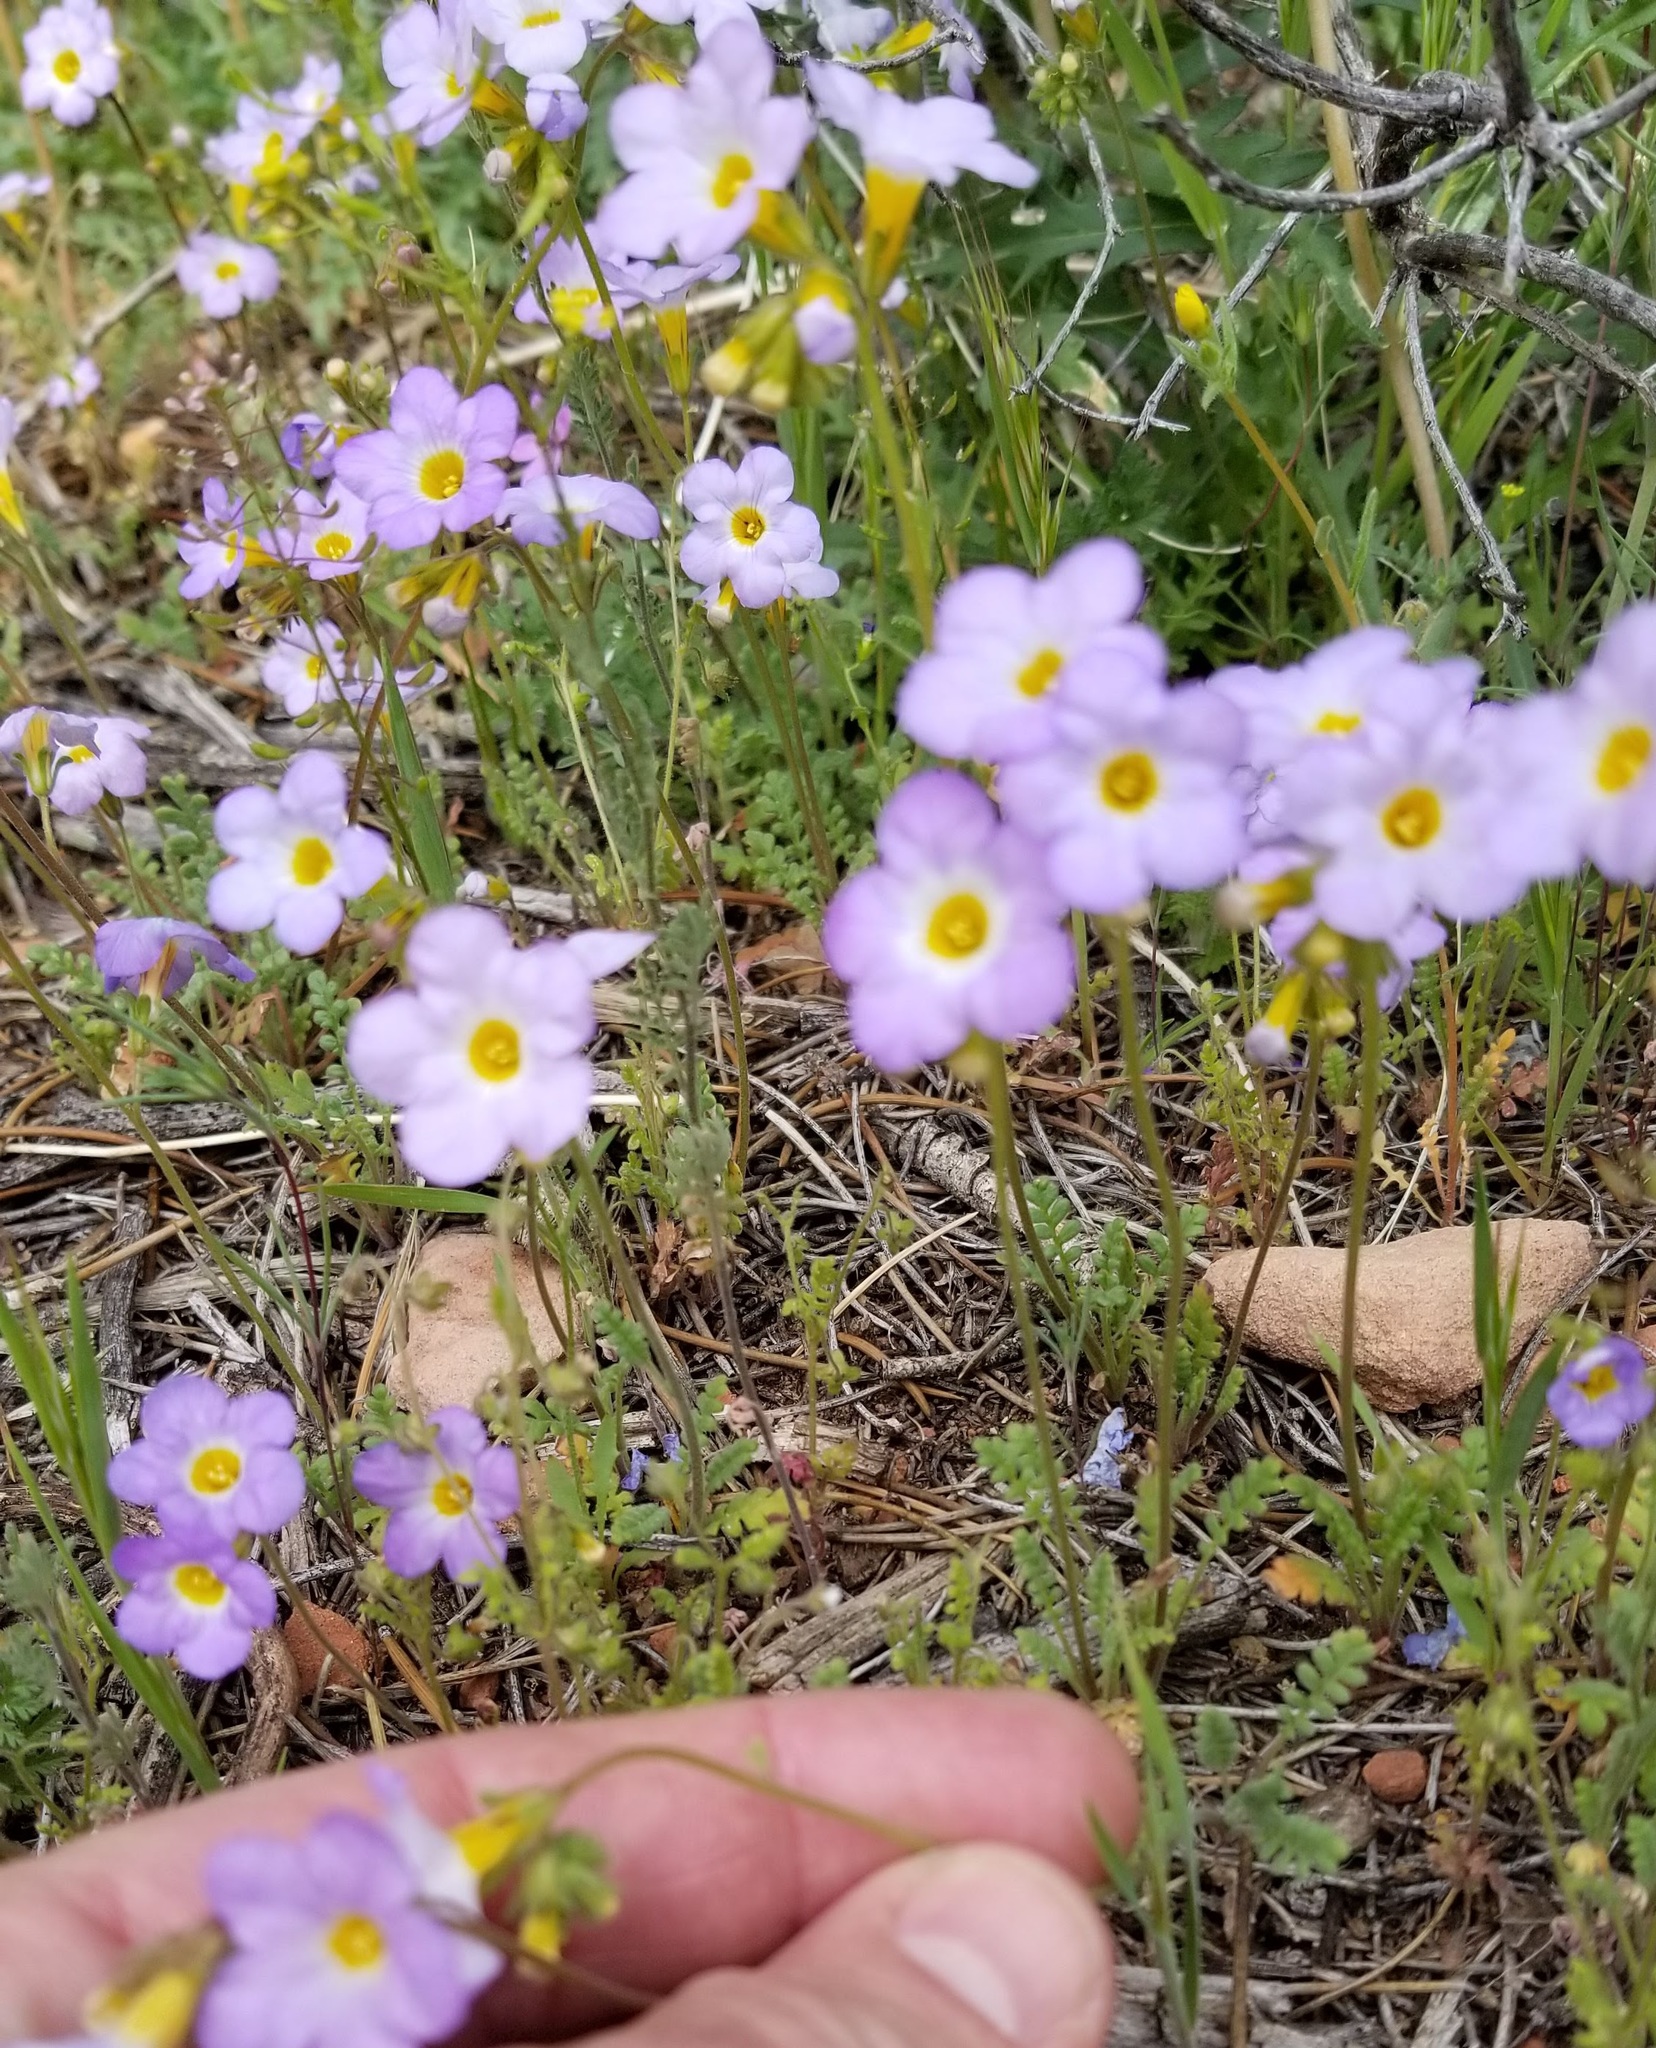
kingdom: Plantae
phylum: Tracheophyta
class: Magnoliopsida
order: Boraginales
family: Hydrophyllaceae
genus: Phacelia
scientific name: Phacelia fremontii
